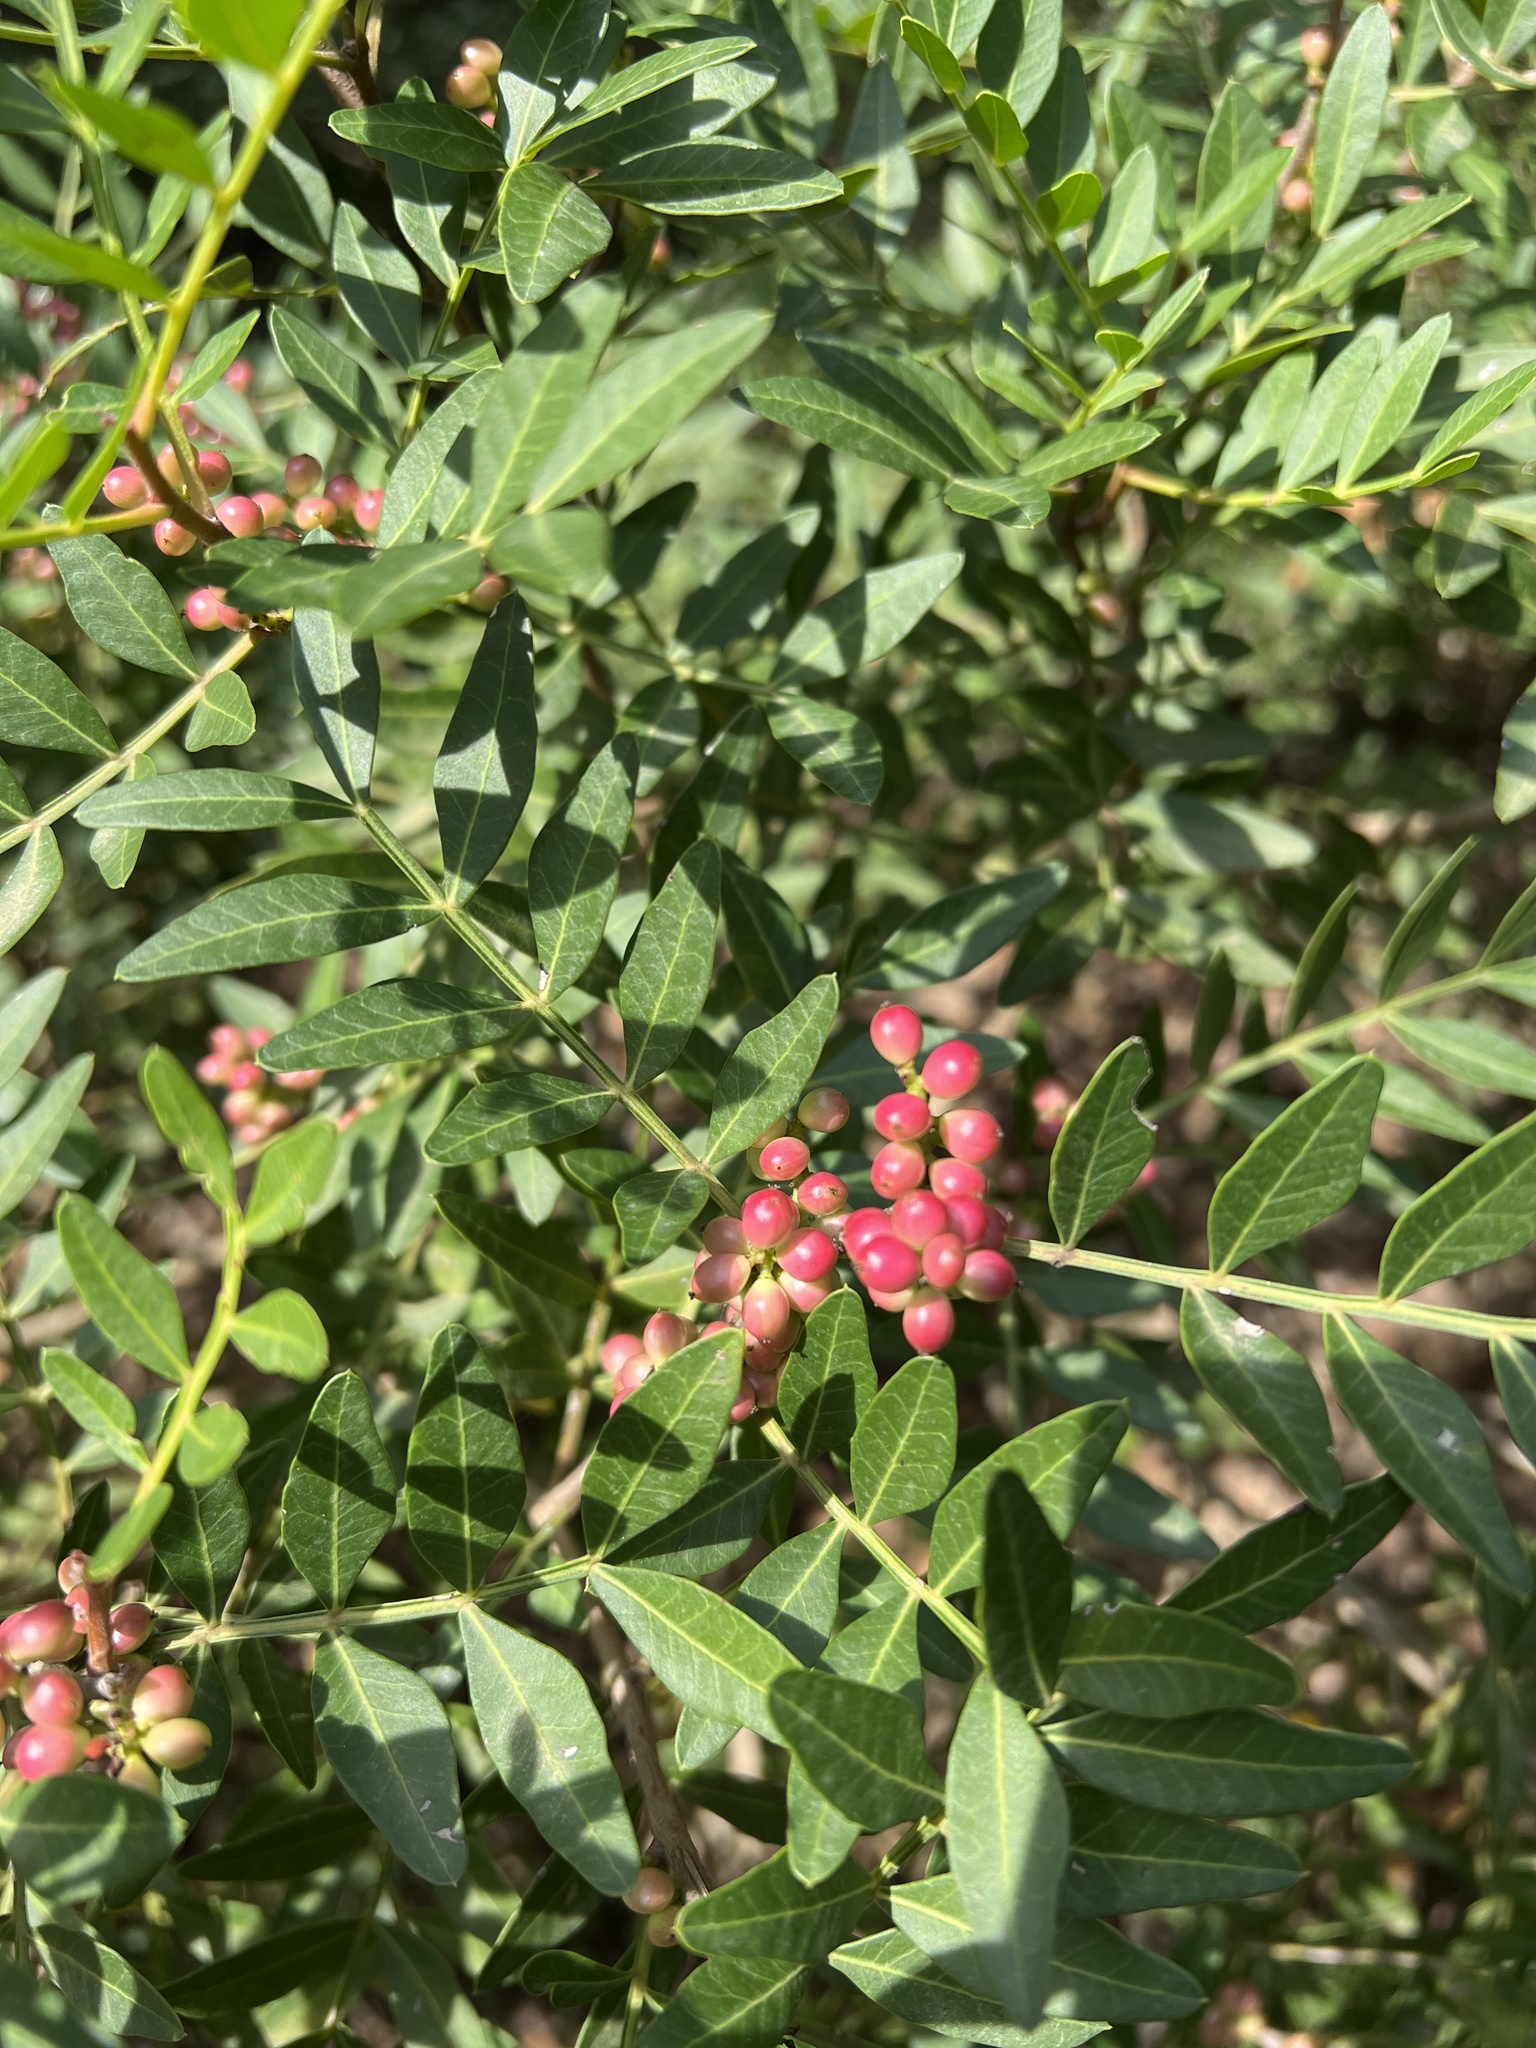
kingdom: Plantae
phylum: Tracheophyta
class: Magnoliopsida
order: Sapindales
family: Anacardiaceae
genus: Pistacia
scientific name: Pistacia lentiscus
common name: Lentisk
